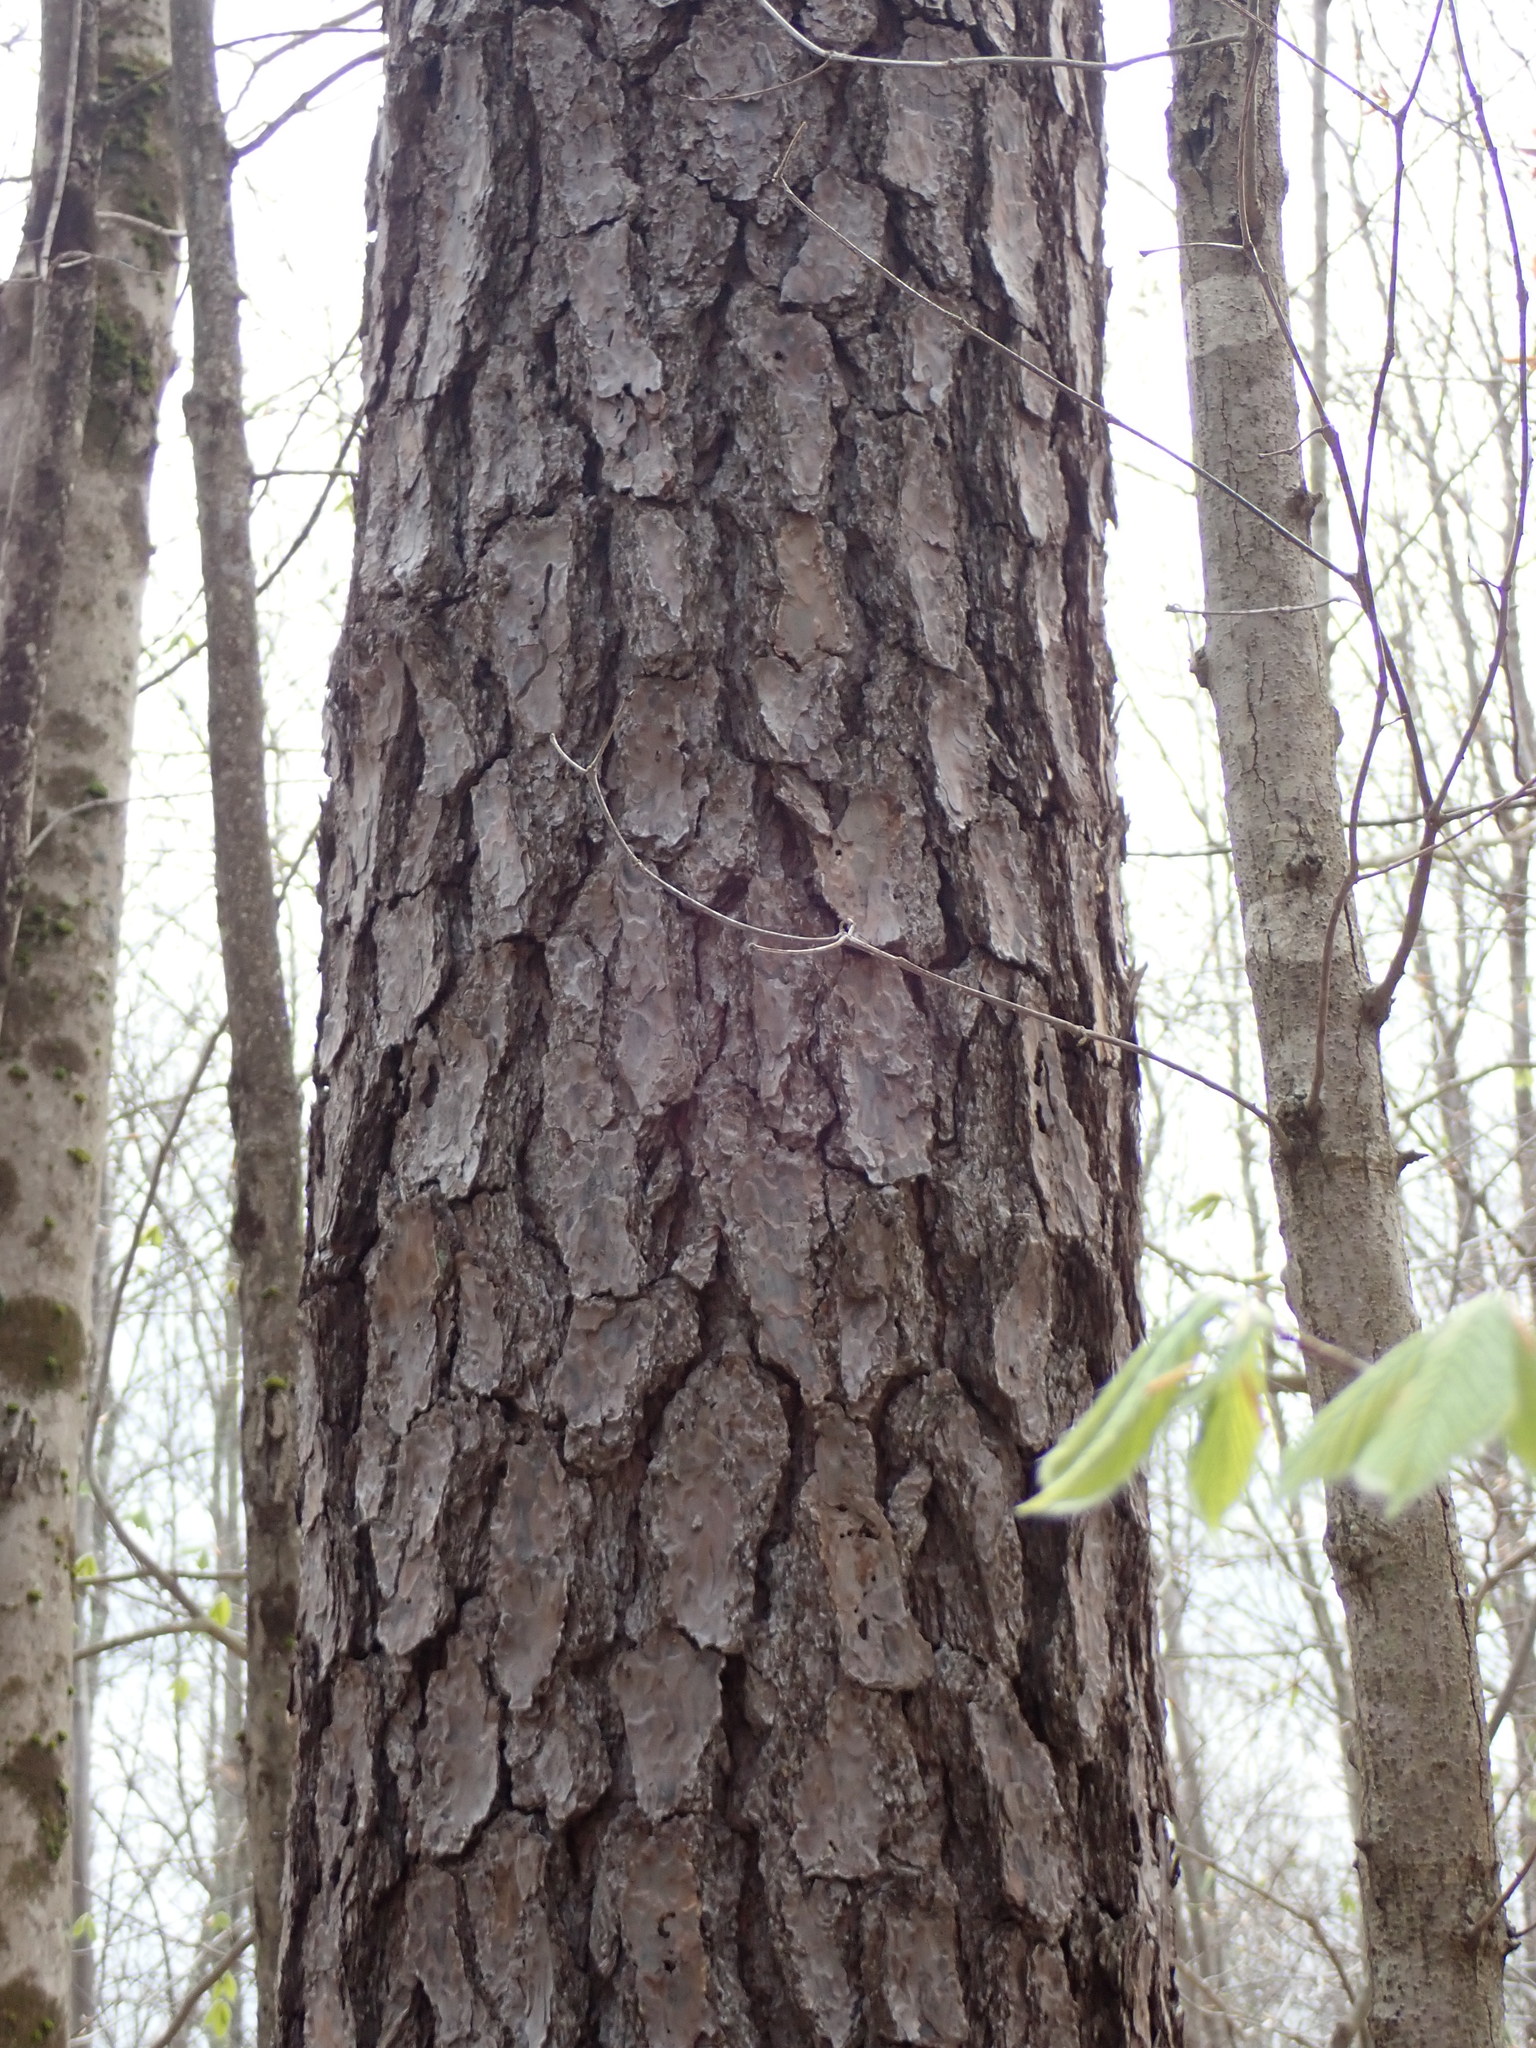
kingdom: Plantae
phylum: Tracheophyta
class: Pinopsida
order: Pinales
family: Pinaceae
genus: Pinus
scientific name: Pinus
